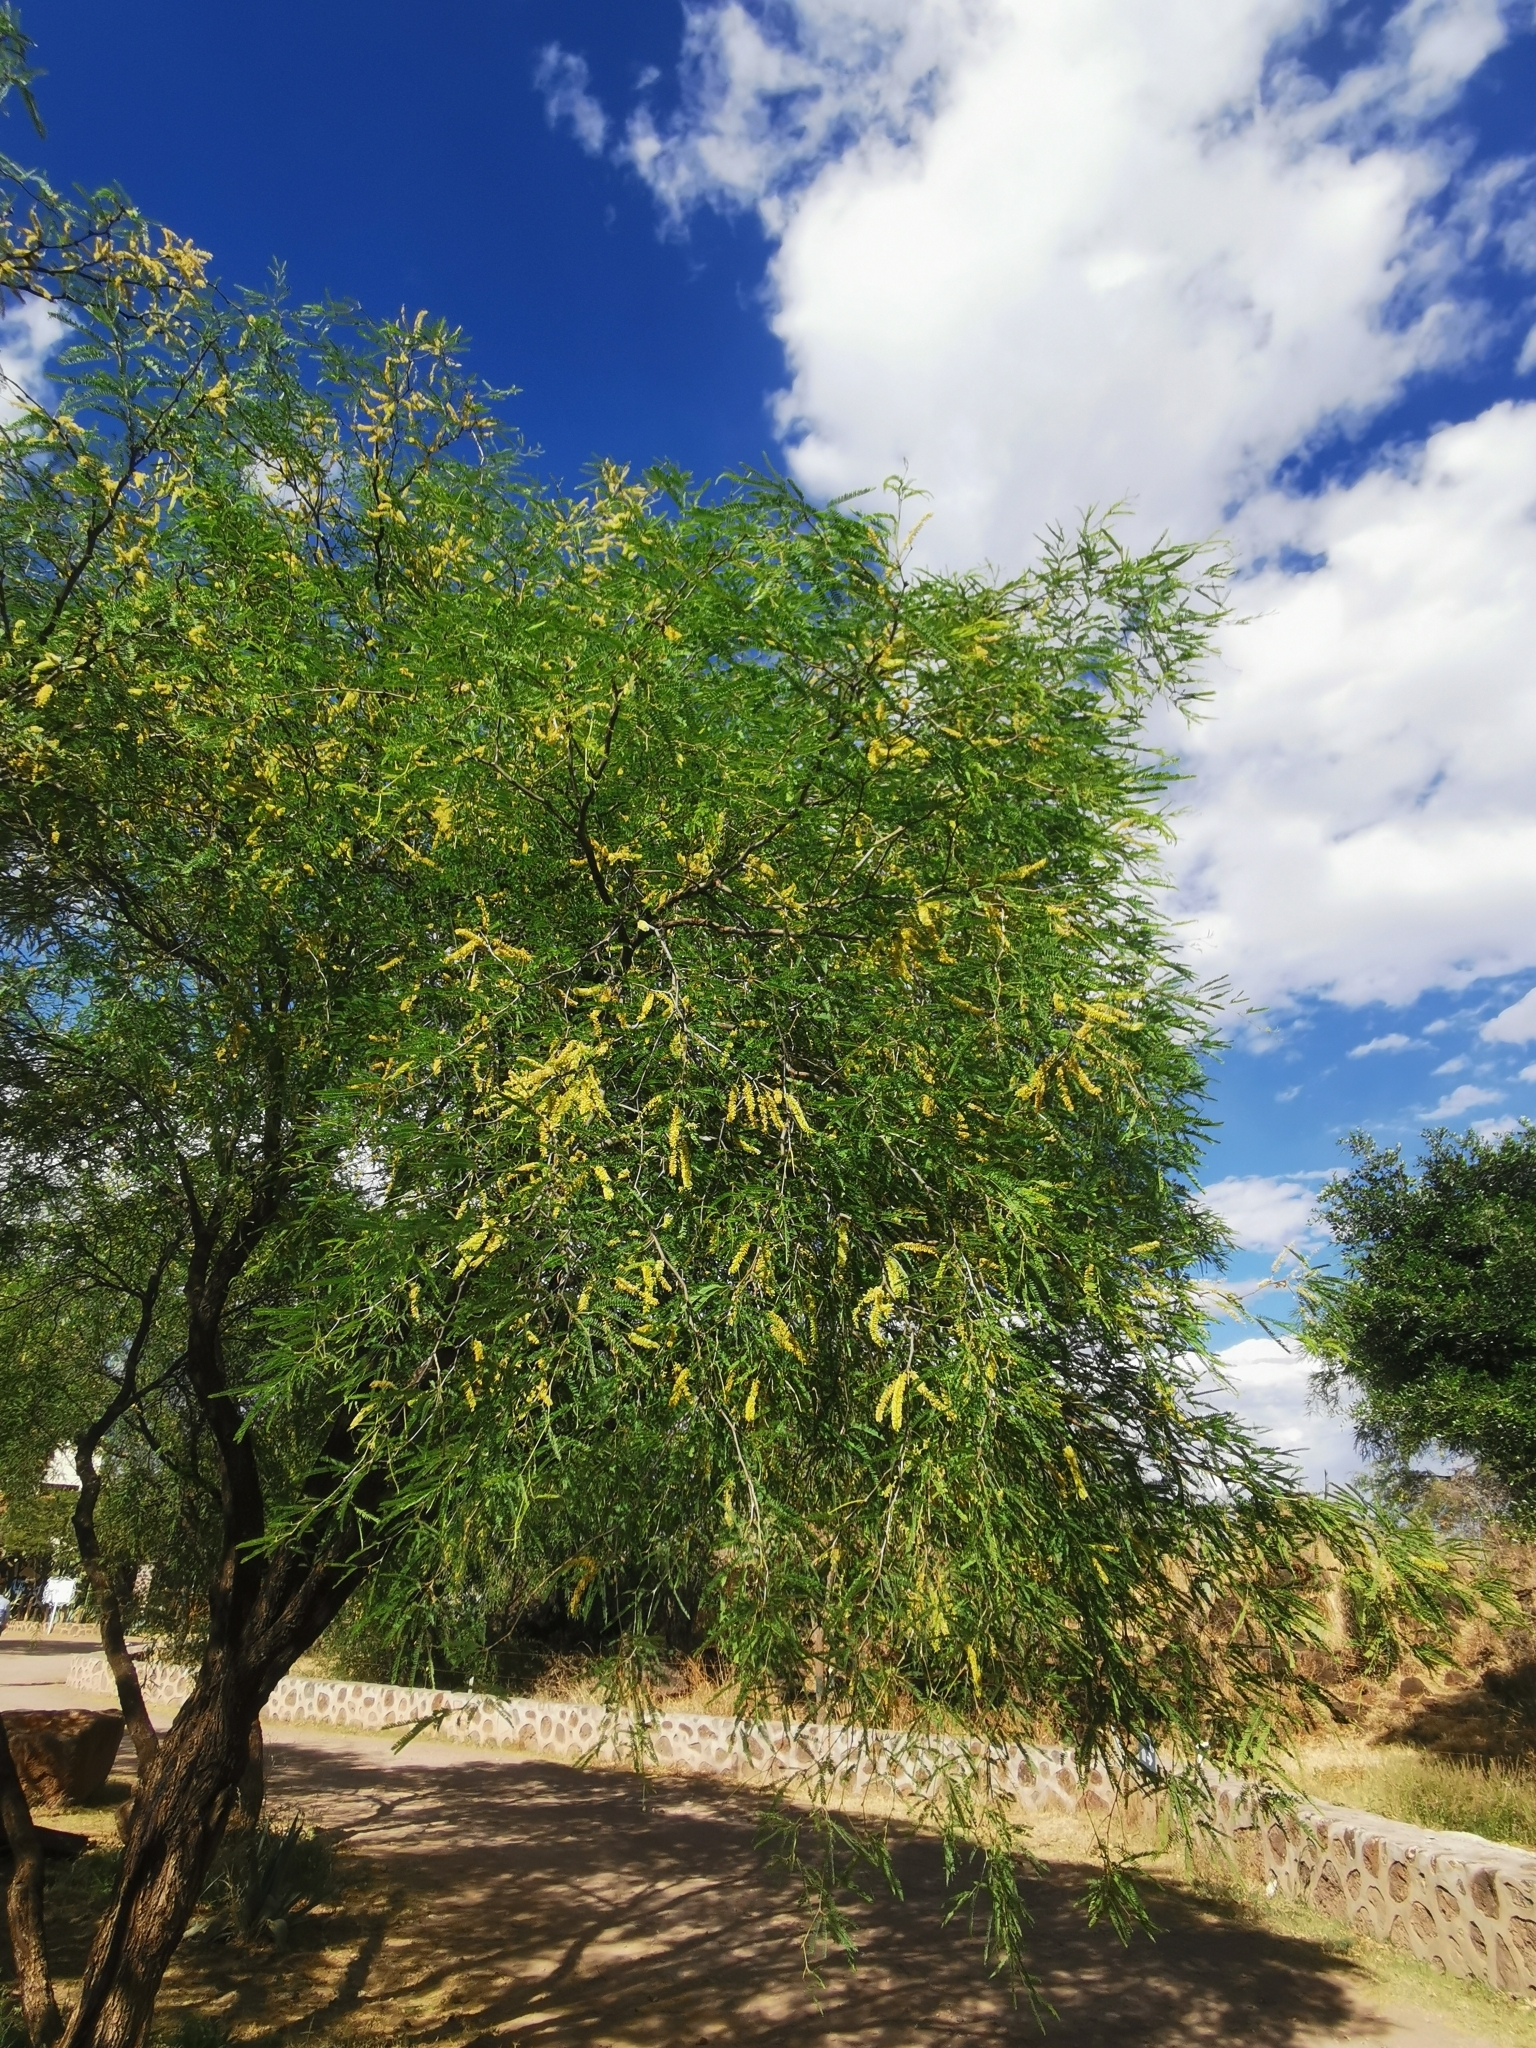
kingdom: Plantae
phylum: Tracheophyta
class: Magnoliopsida
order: Fabales
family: Fabaceae
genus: Prosopis
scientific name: Prosopis laevigata
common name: Smooth mesquite
